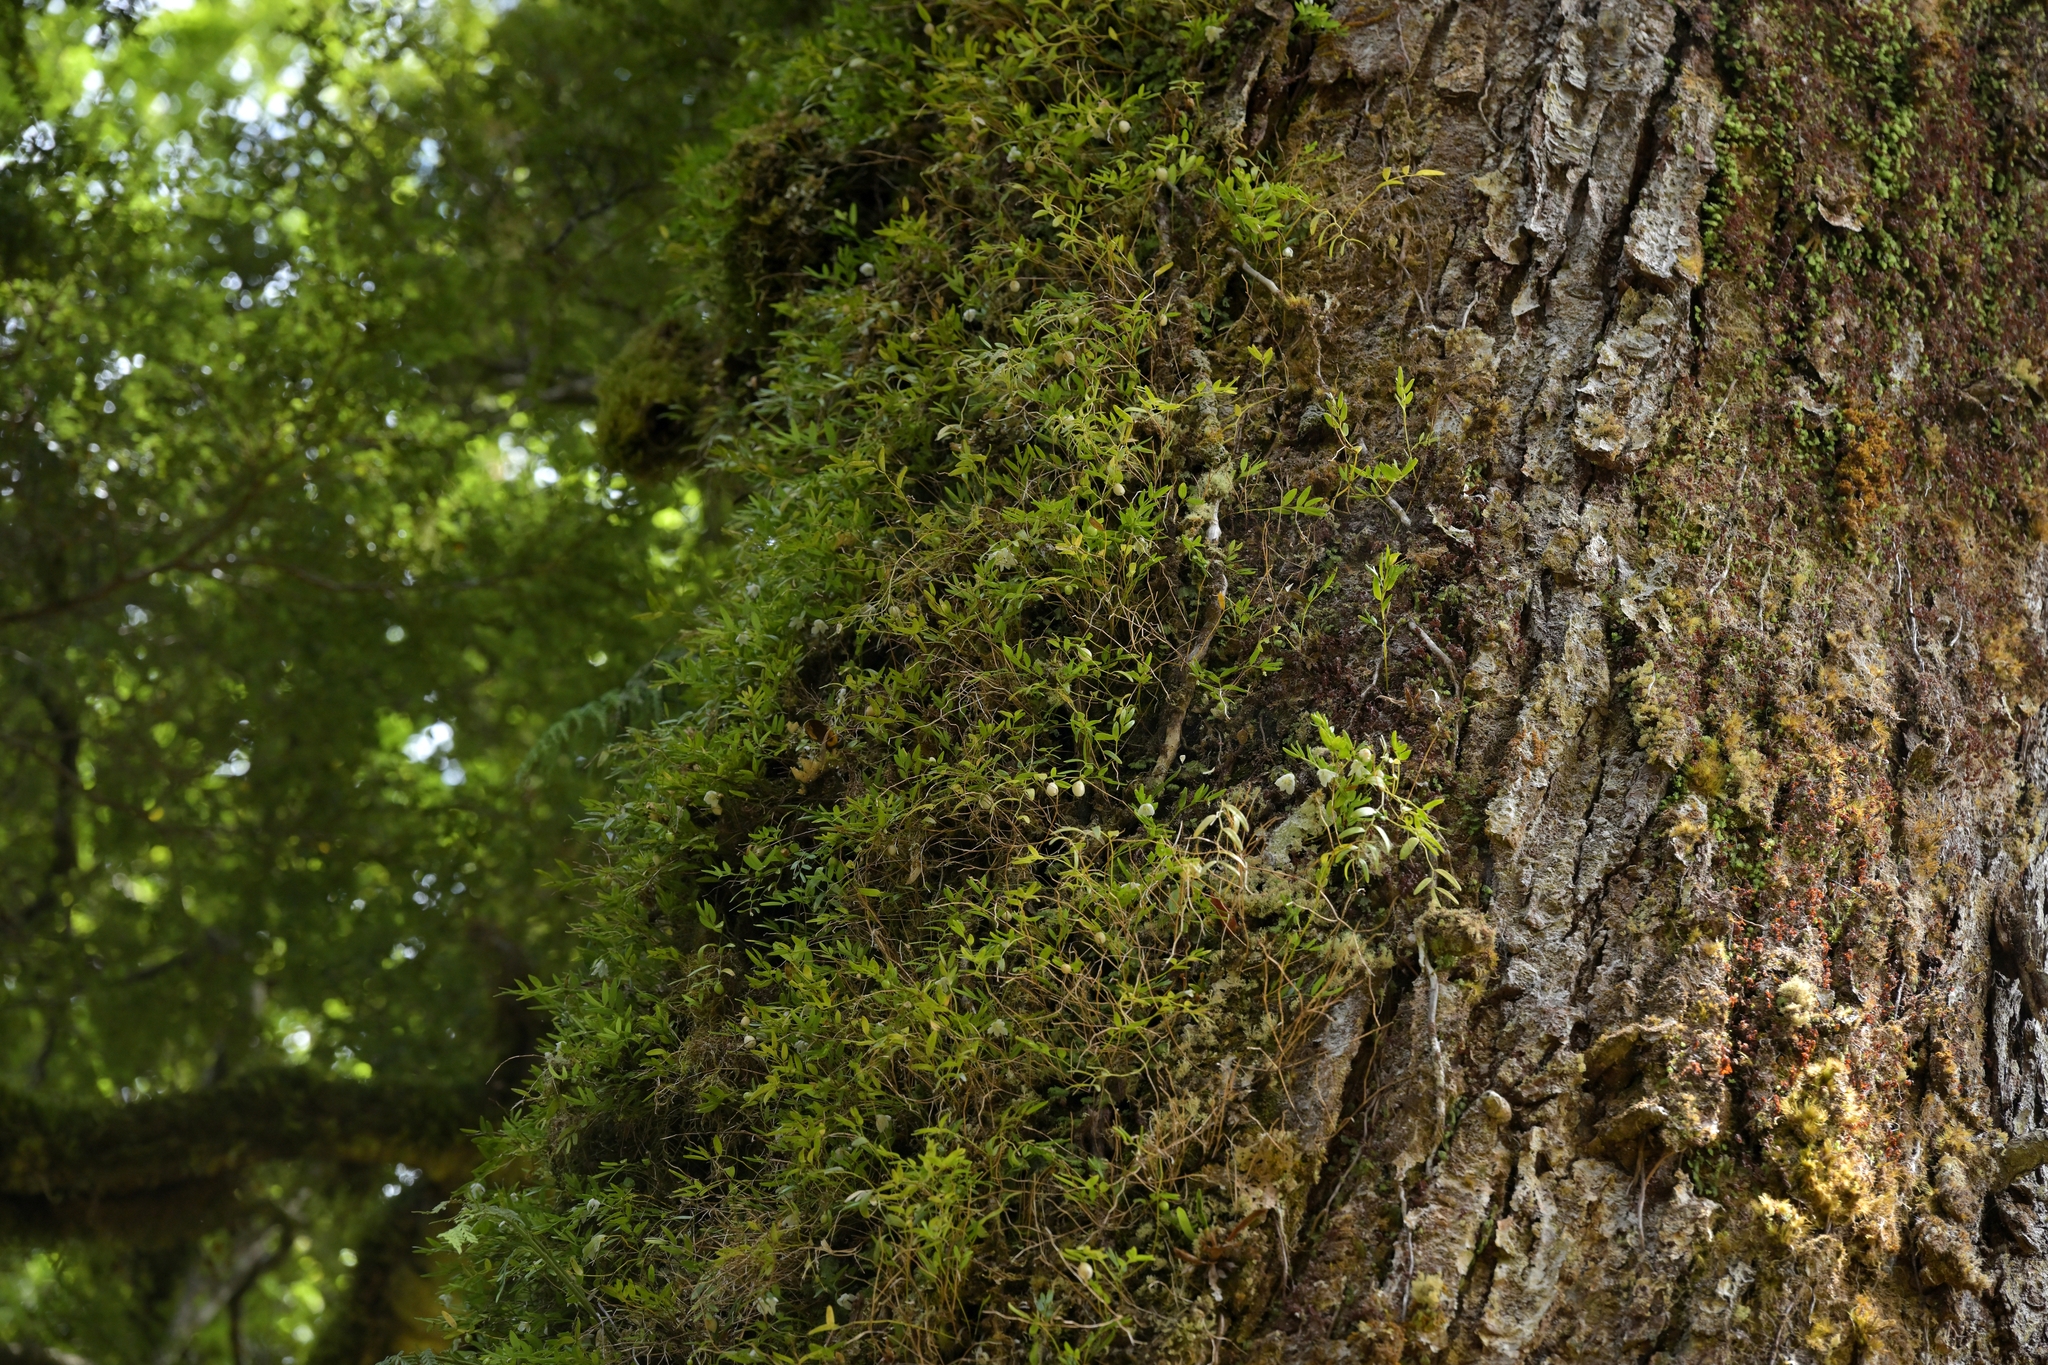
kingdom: Plantae
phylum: Tracheophyta
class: Liliopsida
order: Liliales
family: Alstroemeriaceae
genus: Luzuriaga
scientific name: Luzuriaga parviflora
